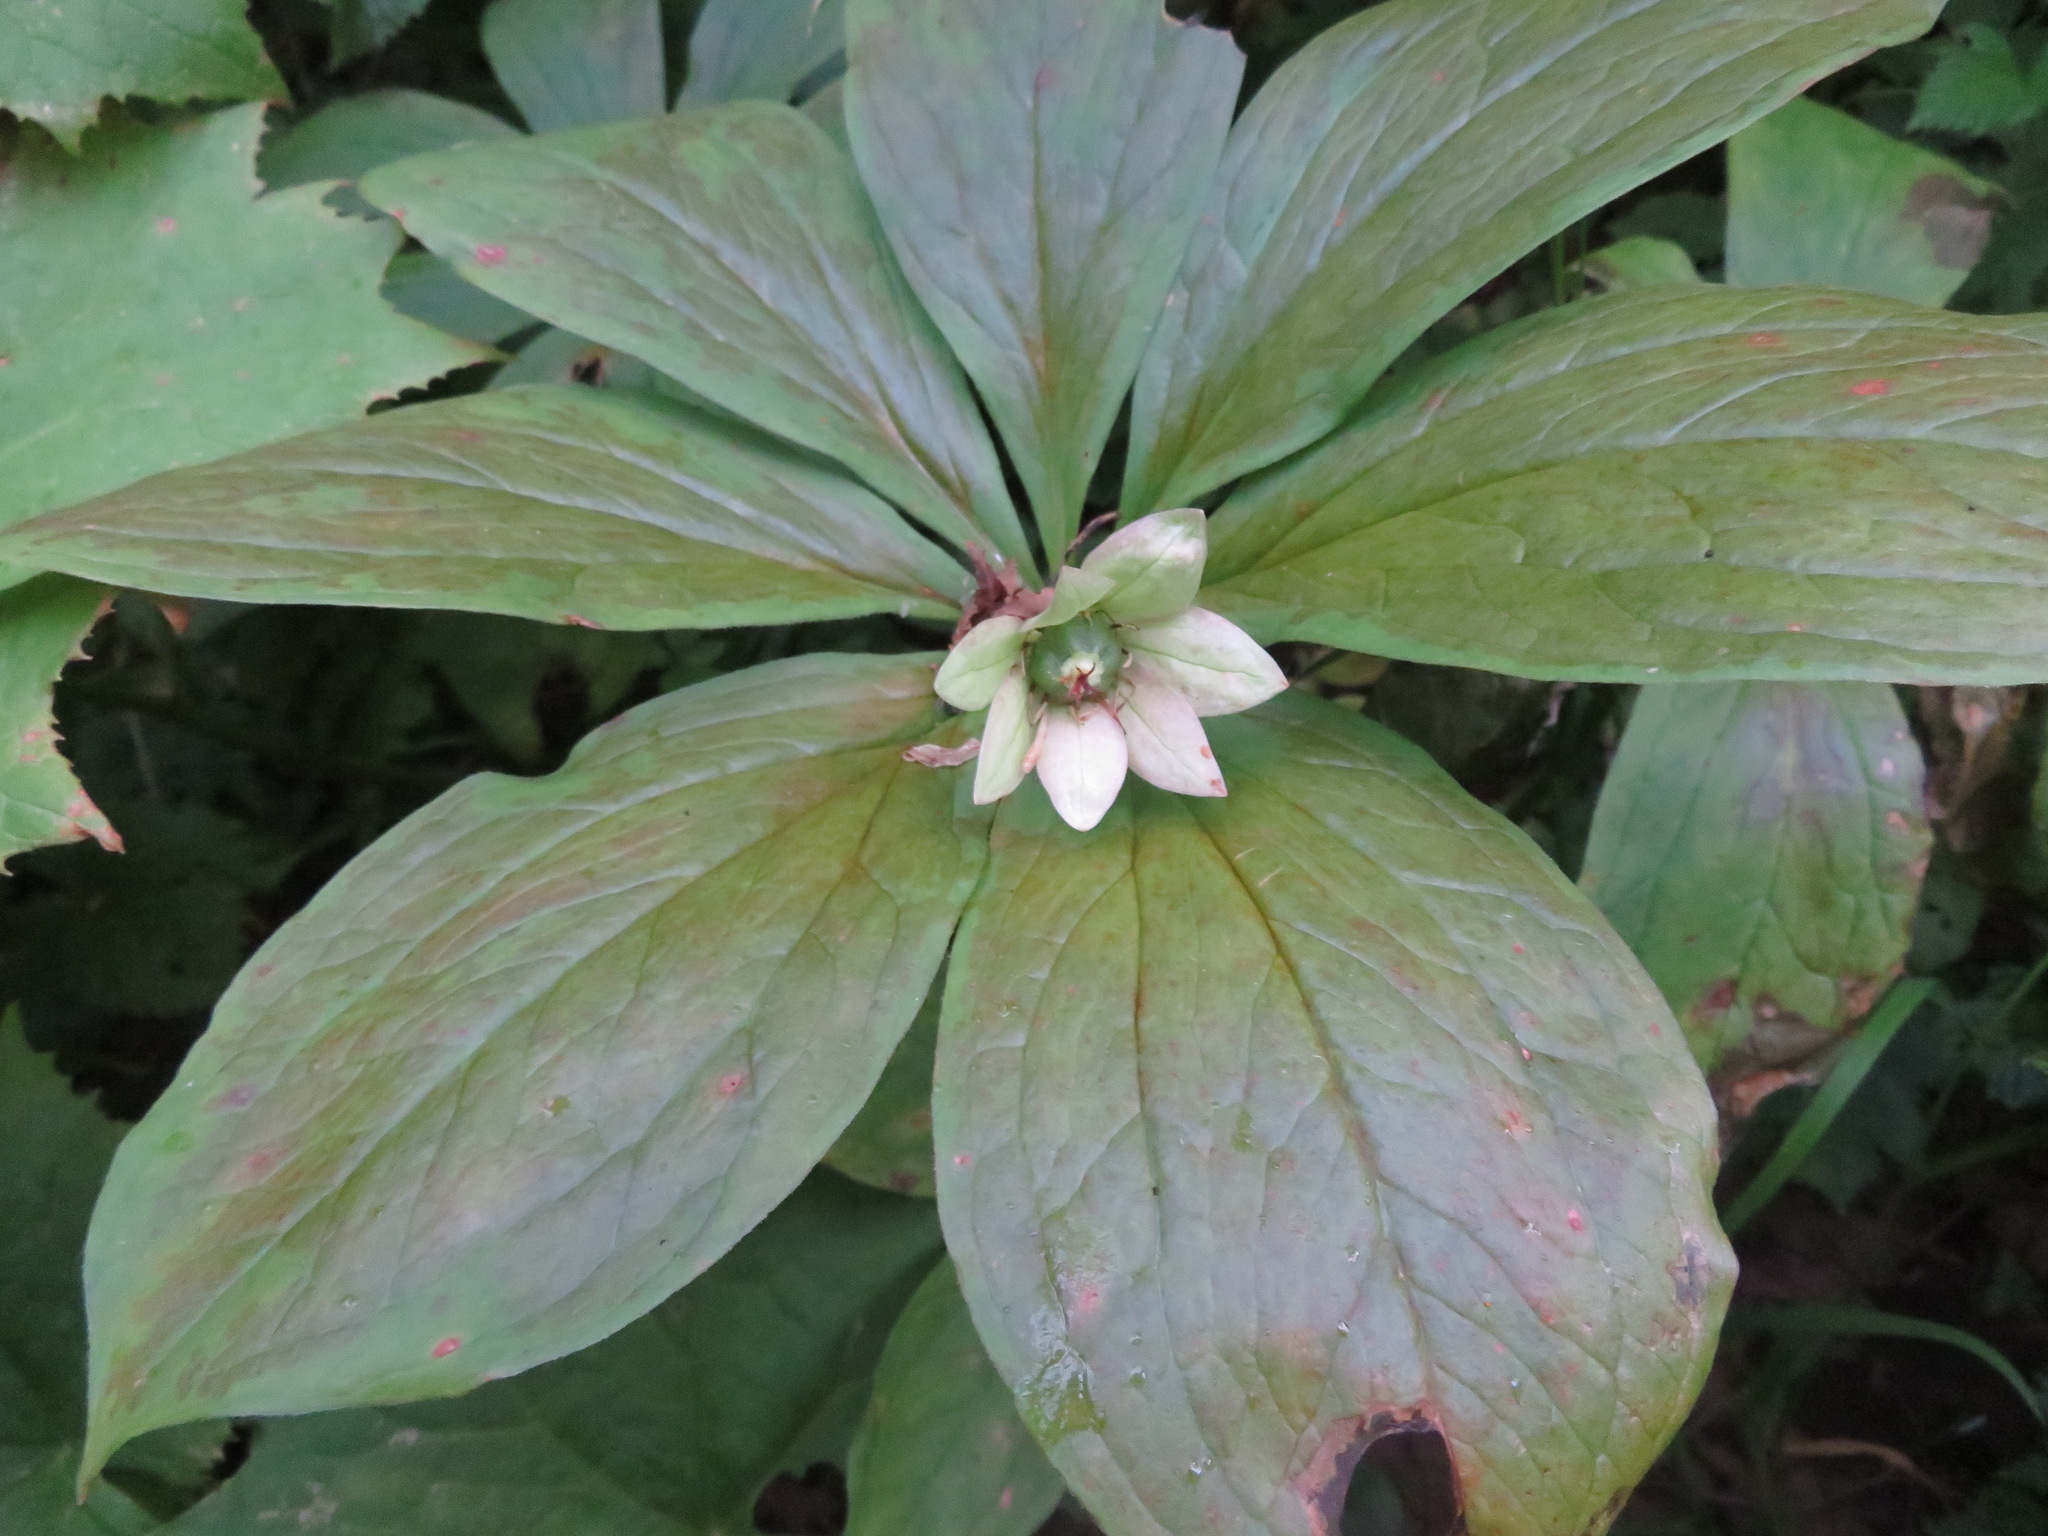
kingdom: Plantae
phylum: Tracheophyta
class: Liliopsida
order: Liliales
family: Melanthiaceae
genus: Paris
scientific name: Paris japonica
